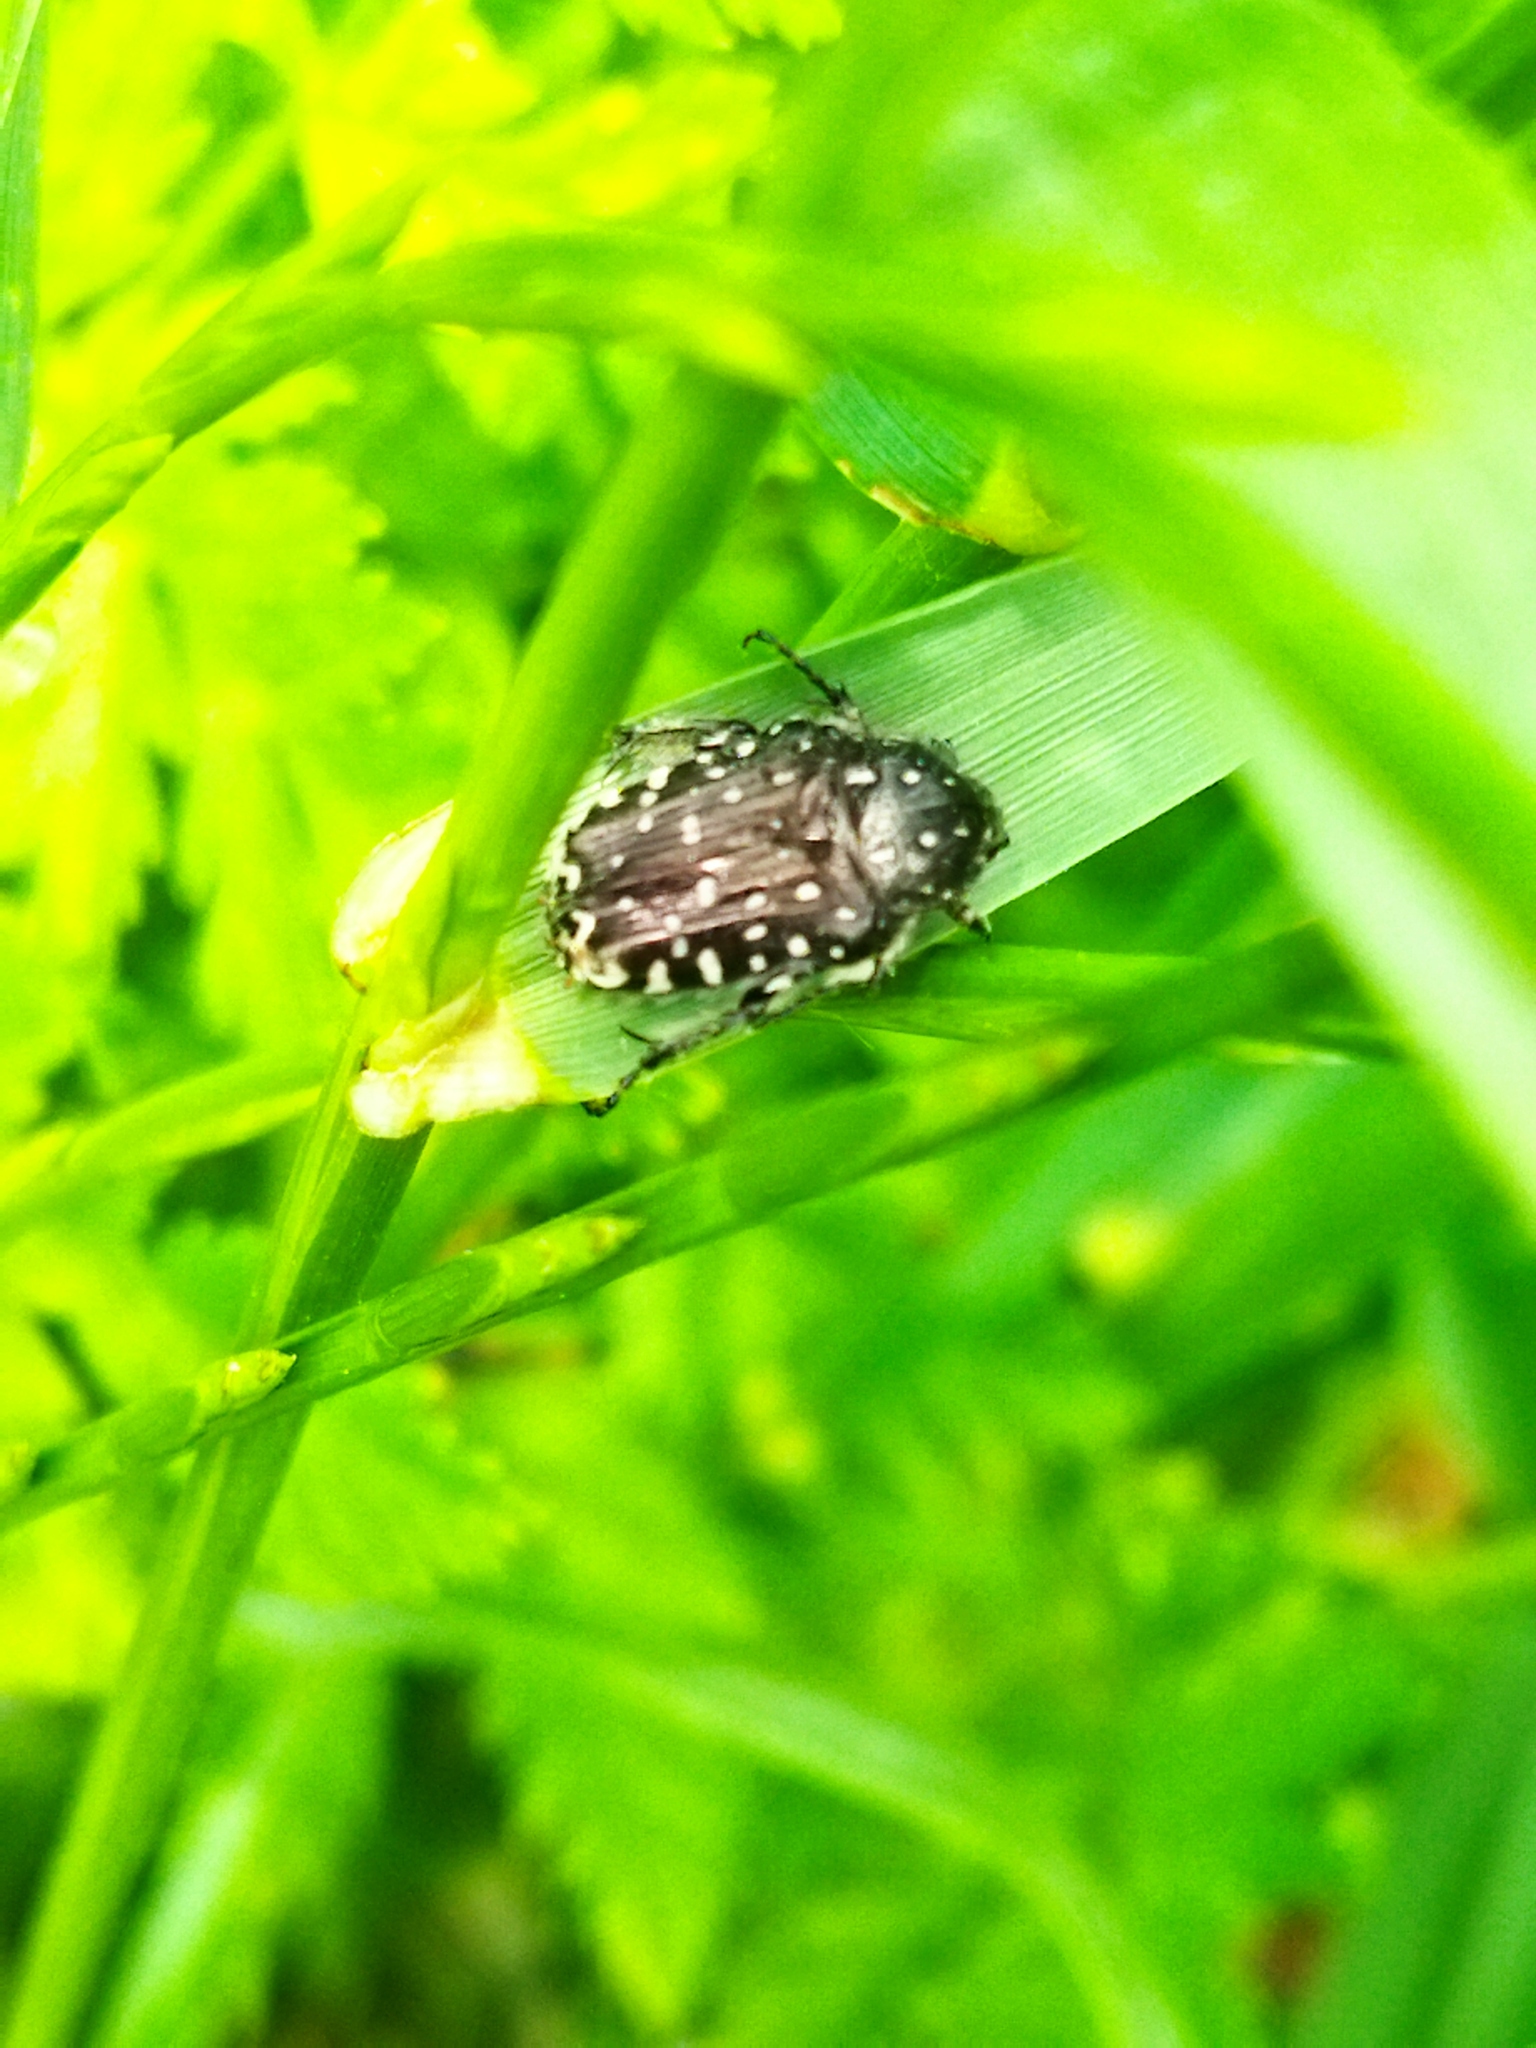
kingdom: Animalia
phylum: Arthropoda
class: Insecta
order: Coleoptera
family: Scarabaeidae
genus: Oxythyrea
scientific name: Oxythyrea funesta
